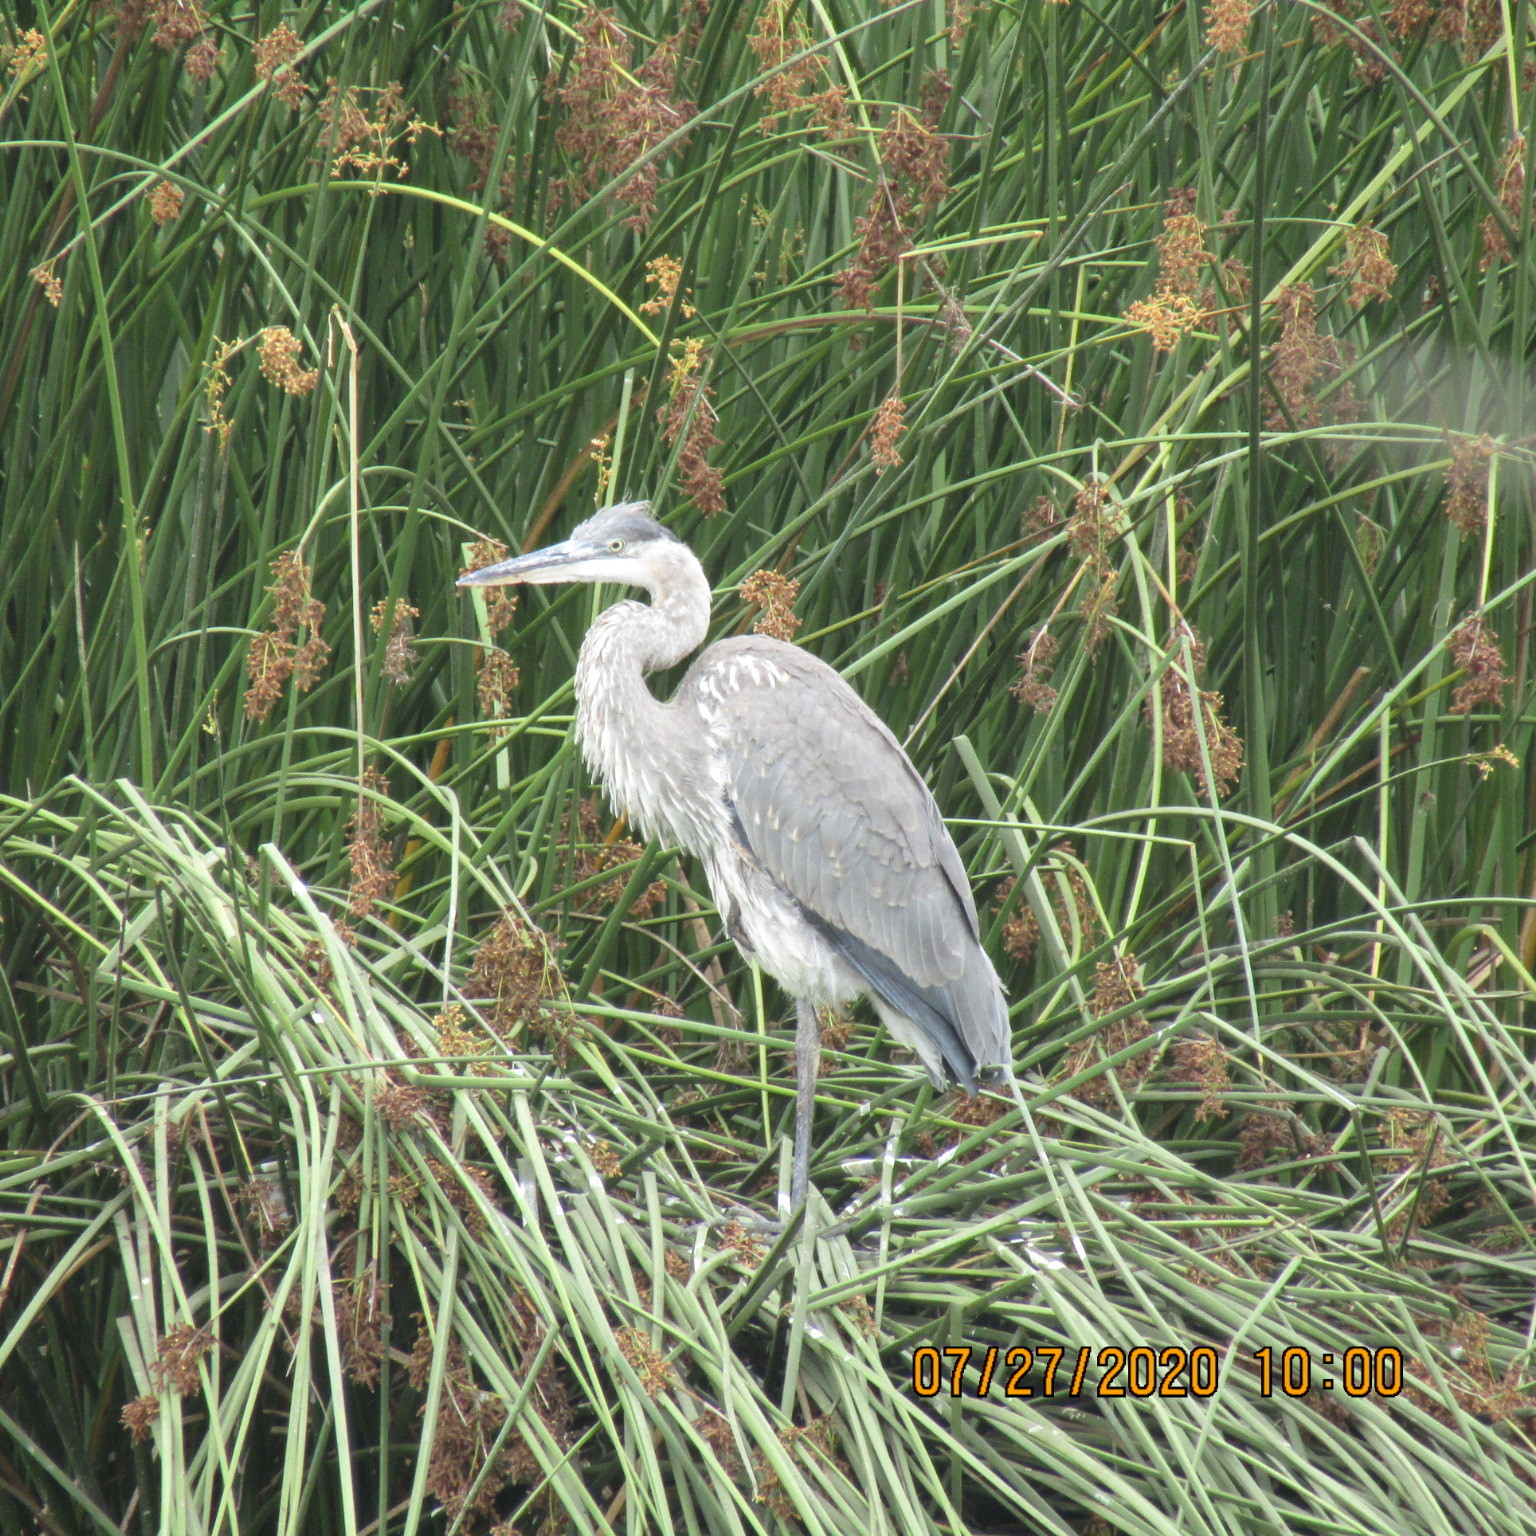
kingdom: Animalia
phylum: Chordata
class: Aves
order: Pelecaniformes
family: Ardeidae
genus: Ardea
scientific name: Ardea herodias
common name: Great blue heron
